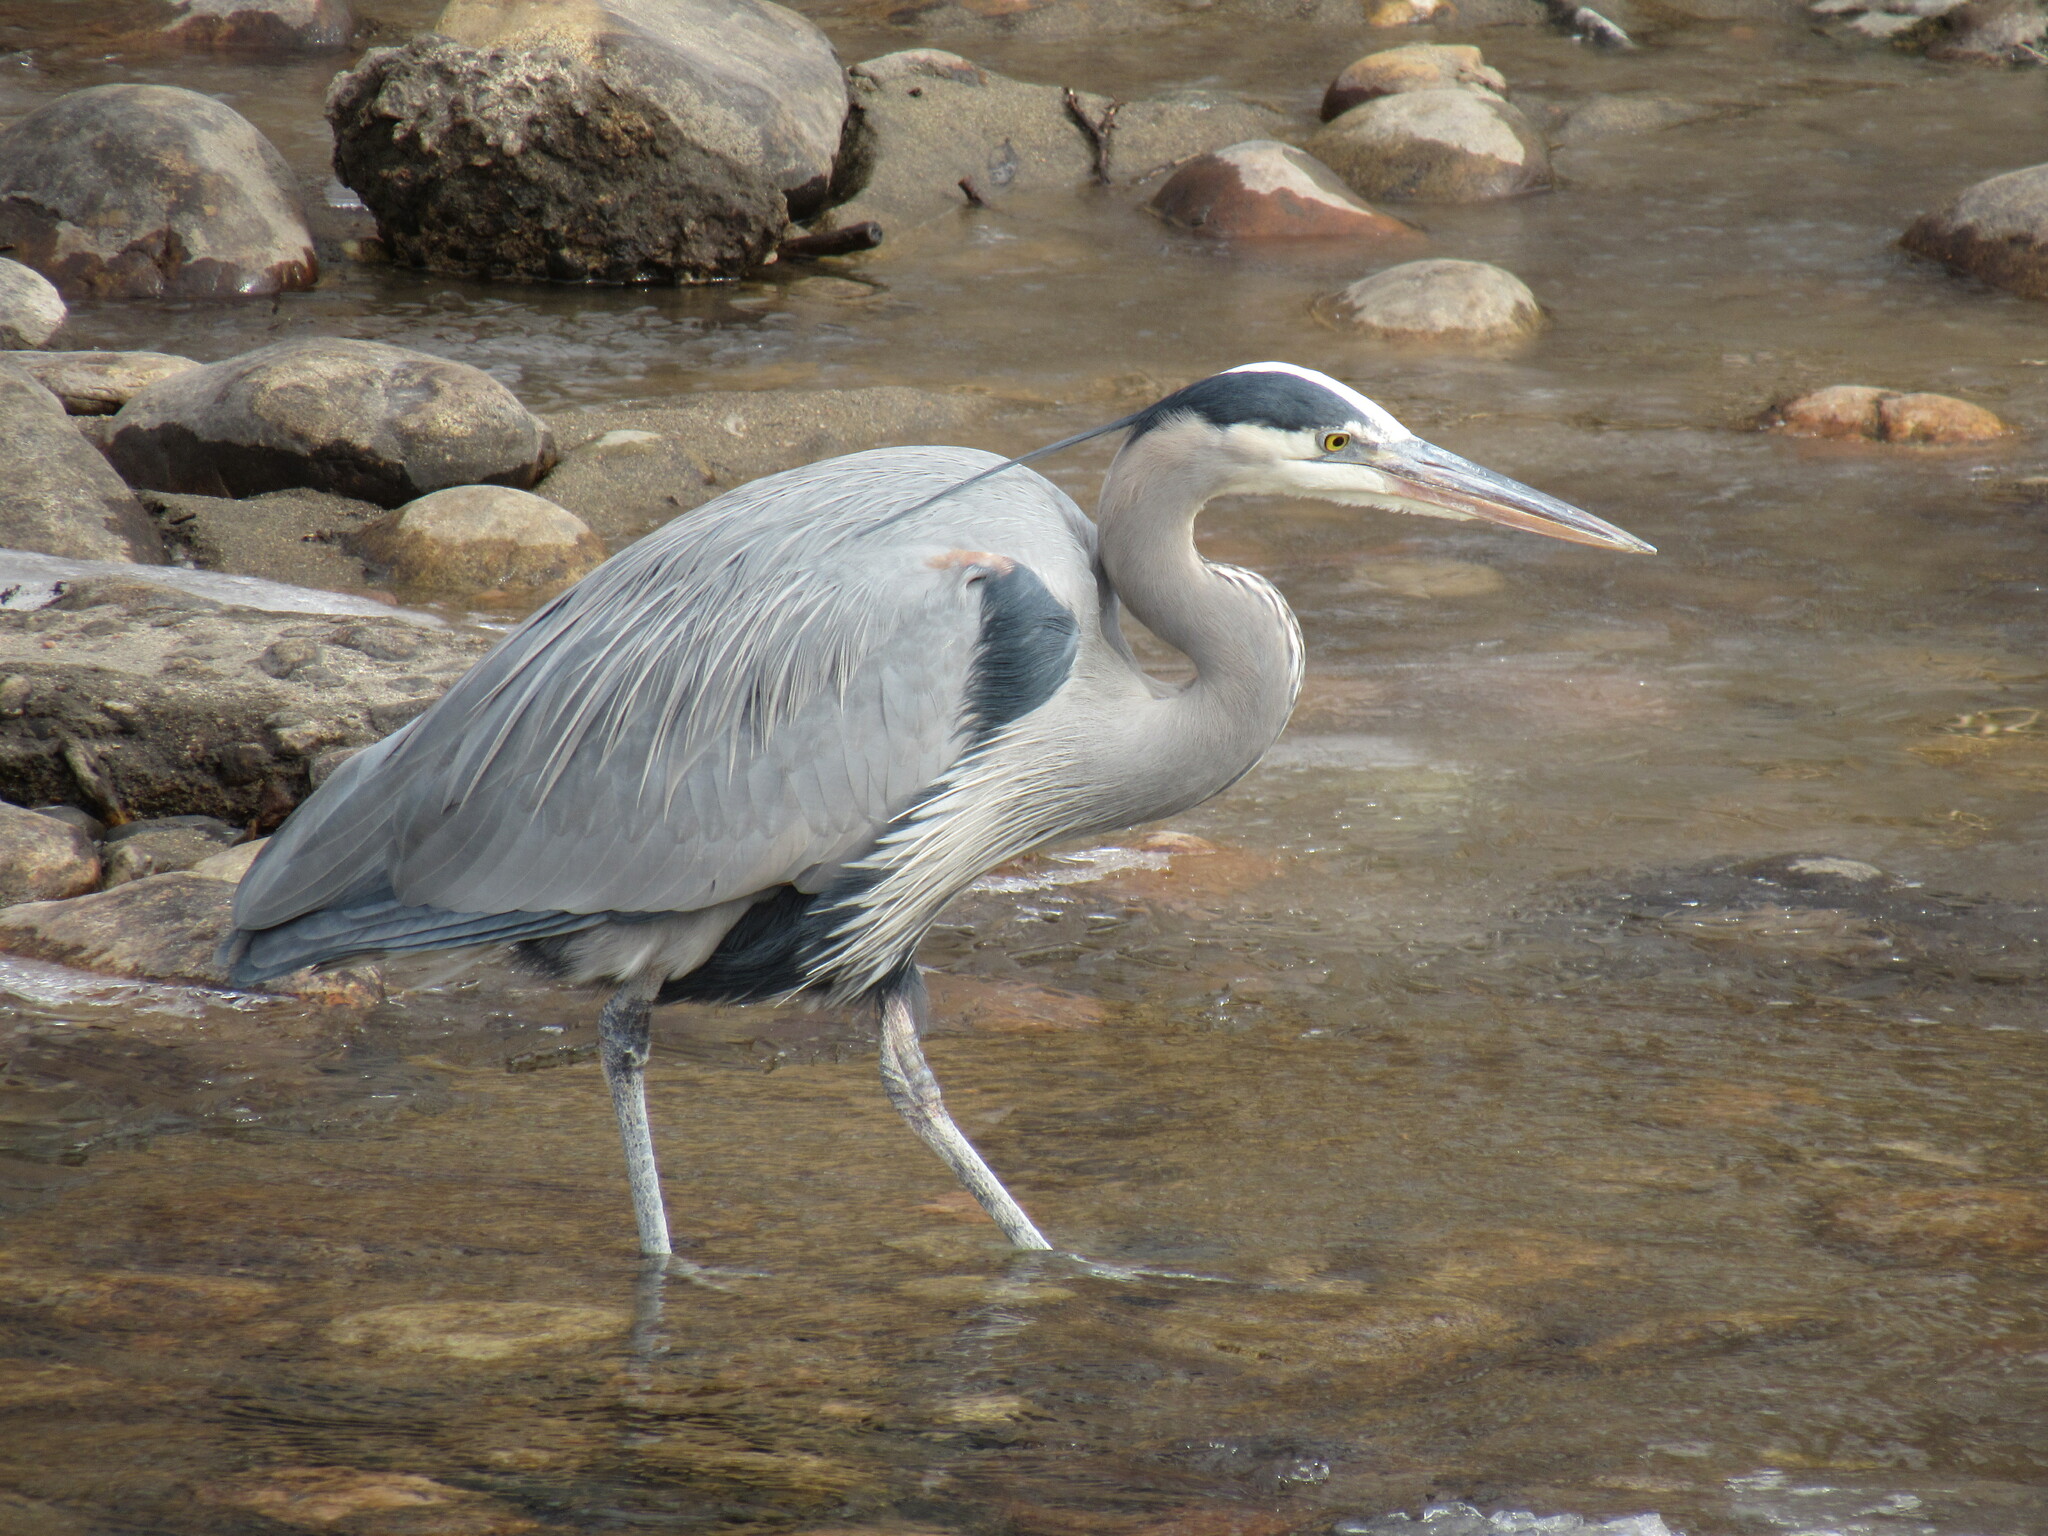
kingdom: Animalia
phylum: Chordata
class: Aves
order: Pelecaniformes
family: Ardeidae
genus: Ardea
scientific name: Ardea herodias
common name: Great blue heron
